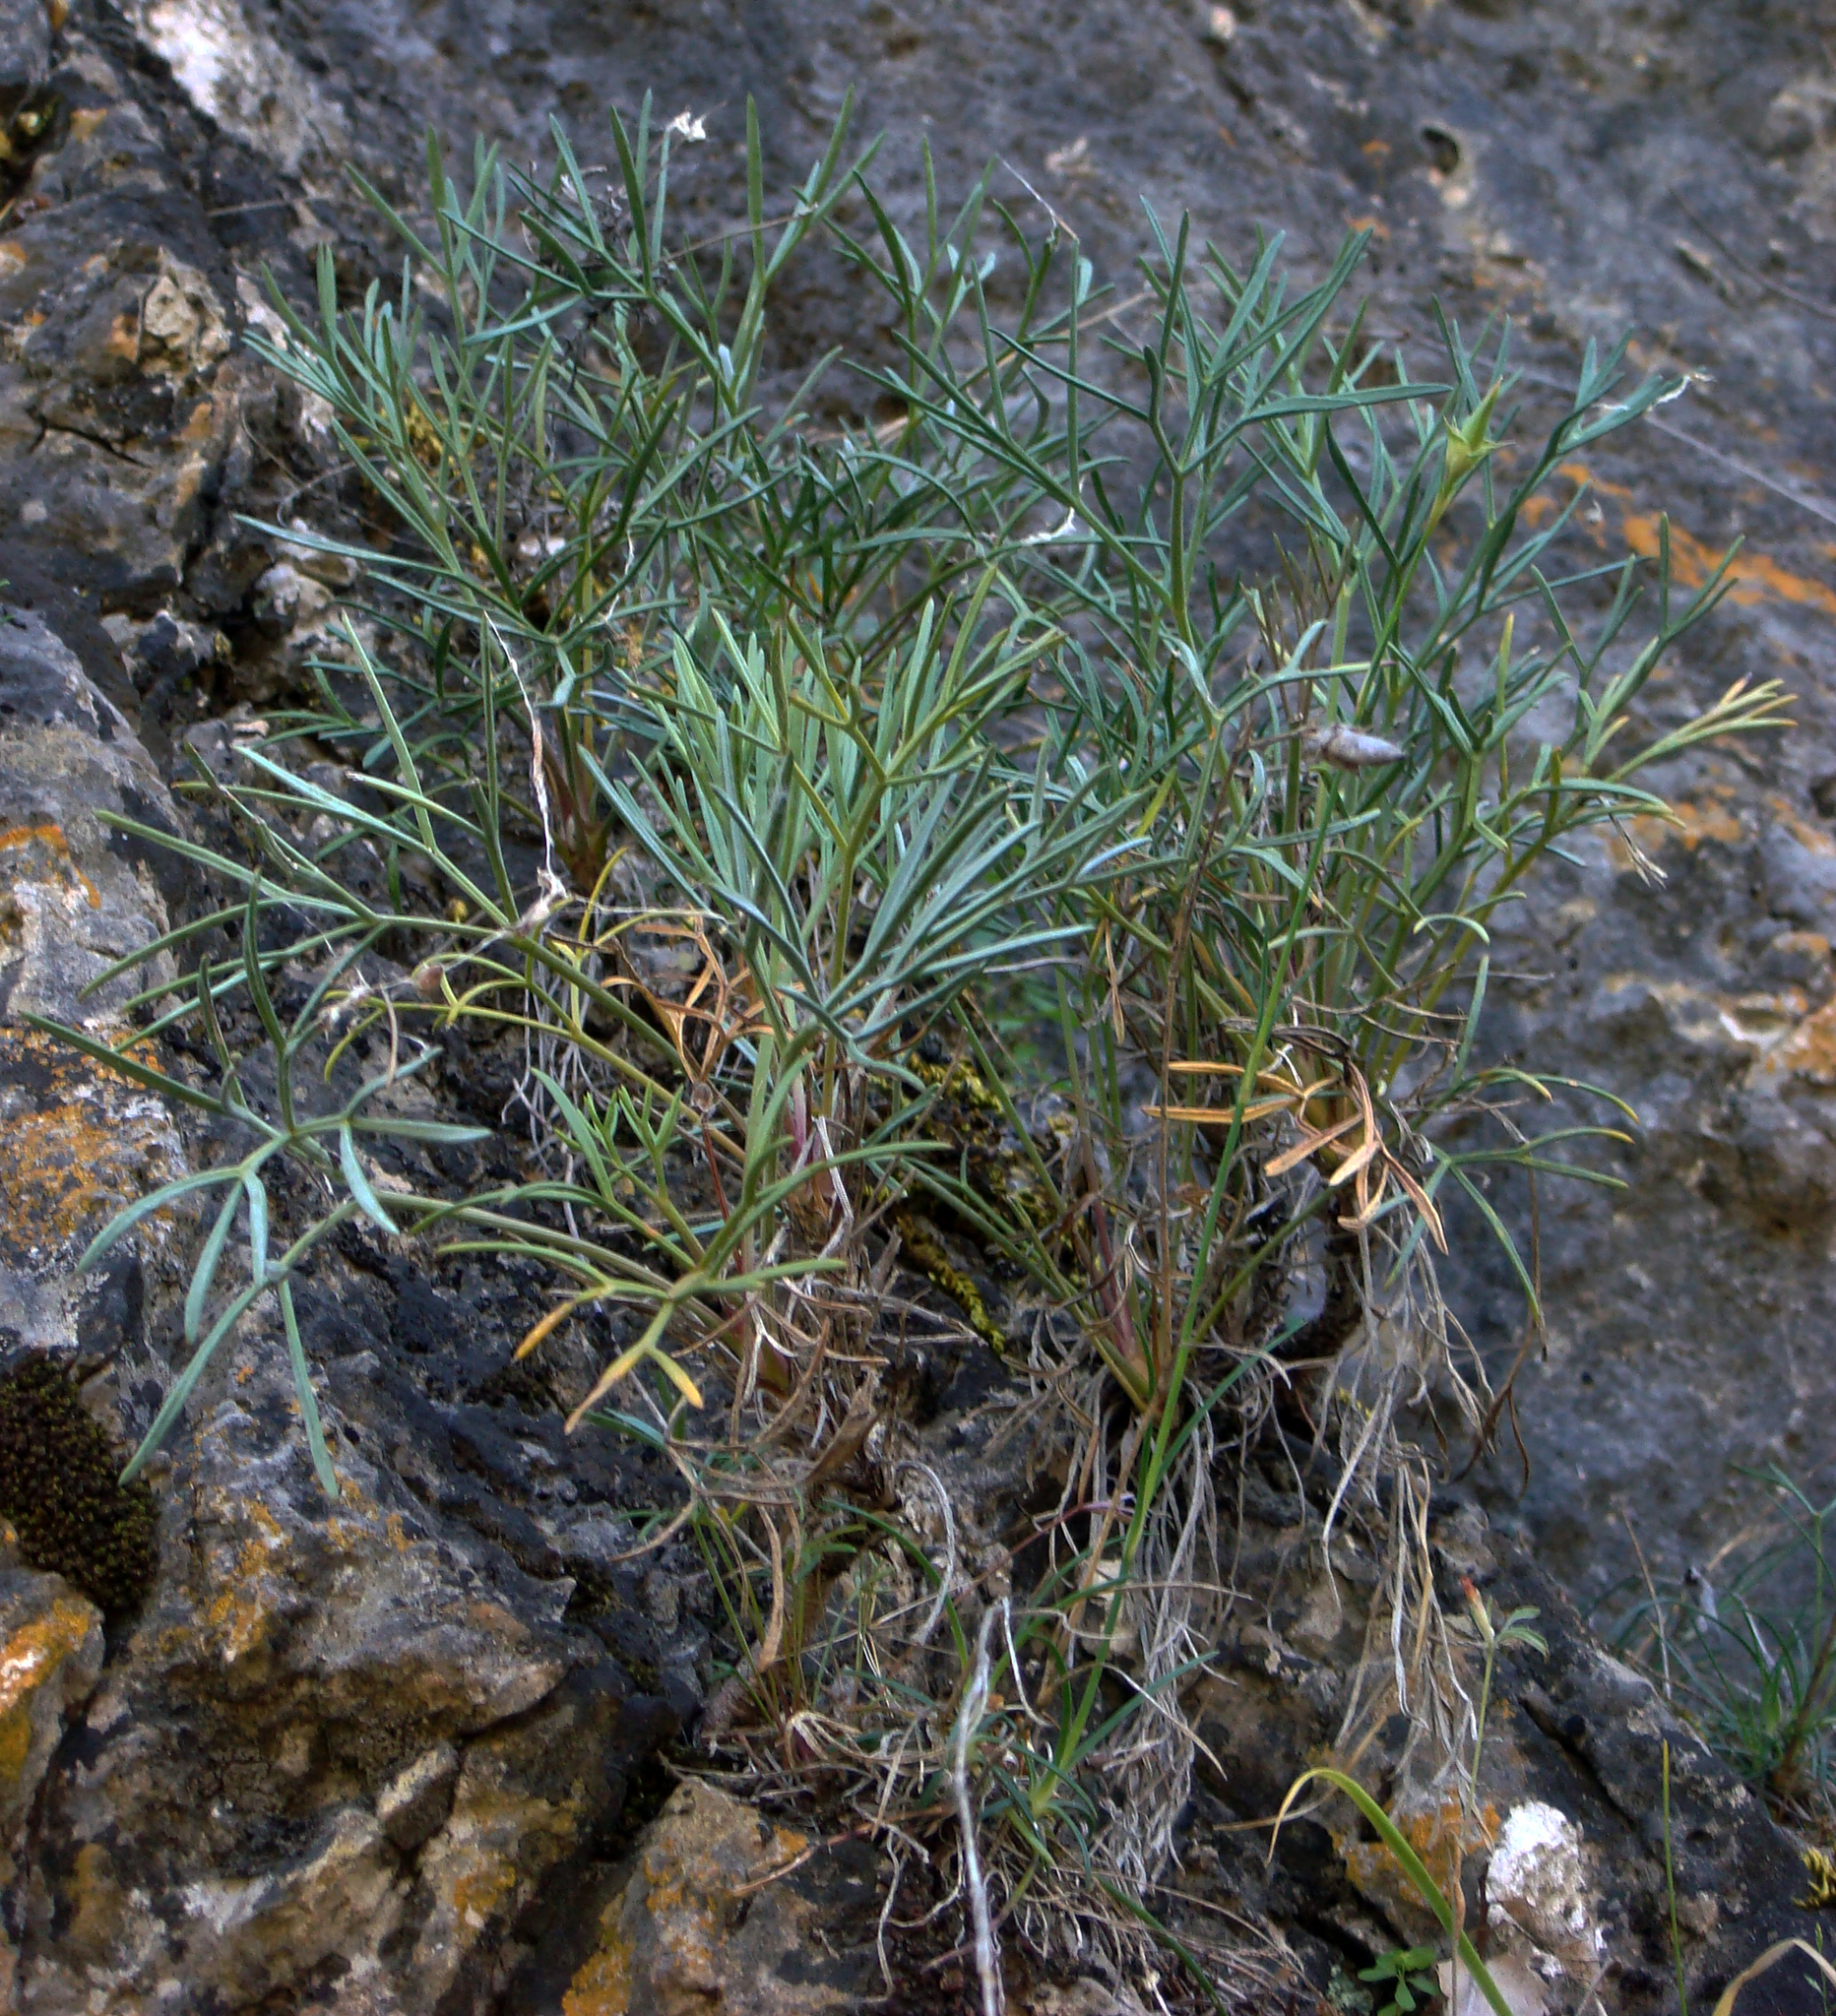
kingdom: Plantae
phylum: Tracheophyta
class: Magnoliopsida
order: Apiales
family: Apiaceae
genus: Seseli
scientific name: Seseli praecox
